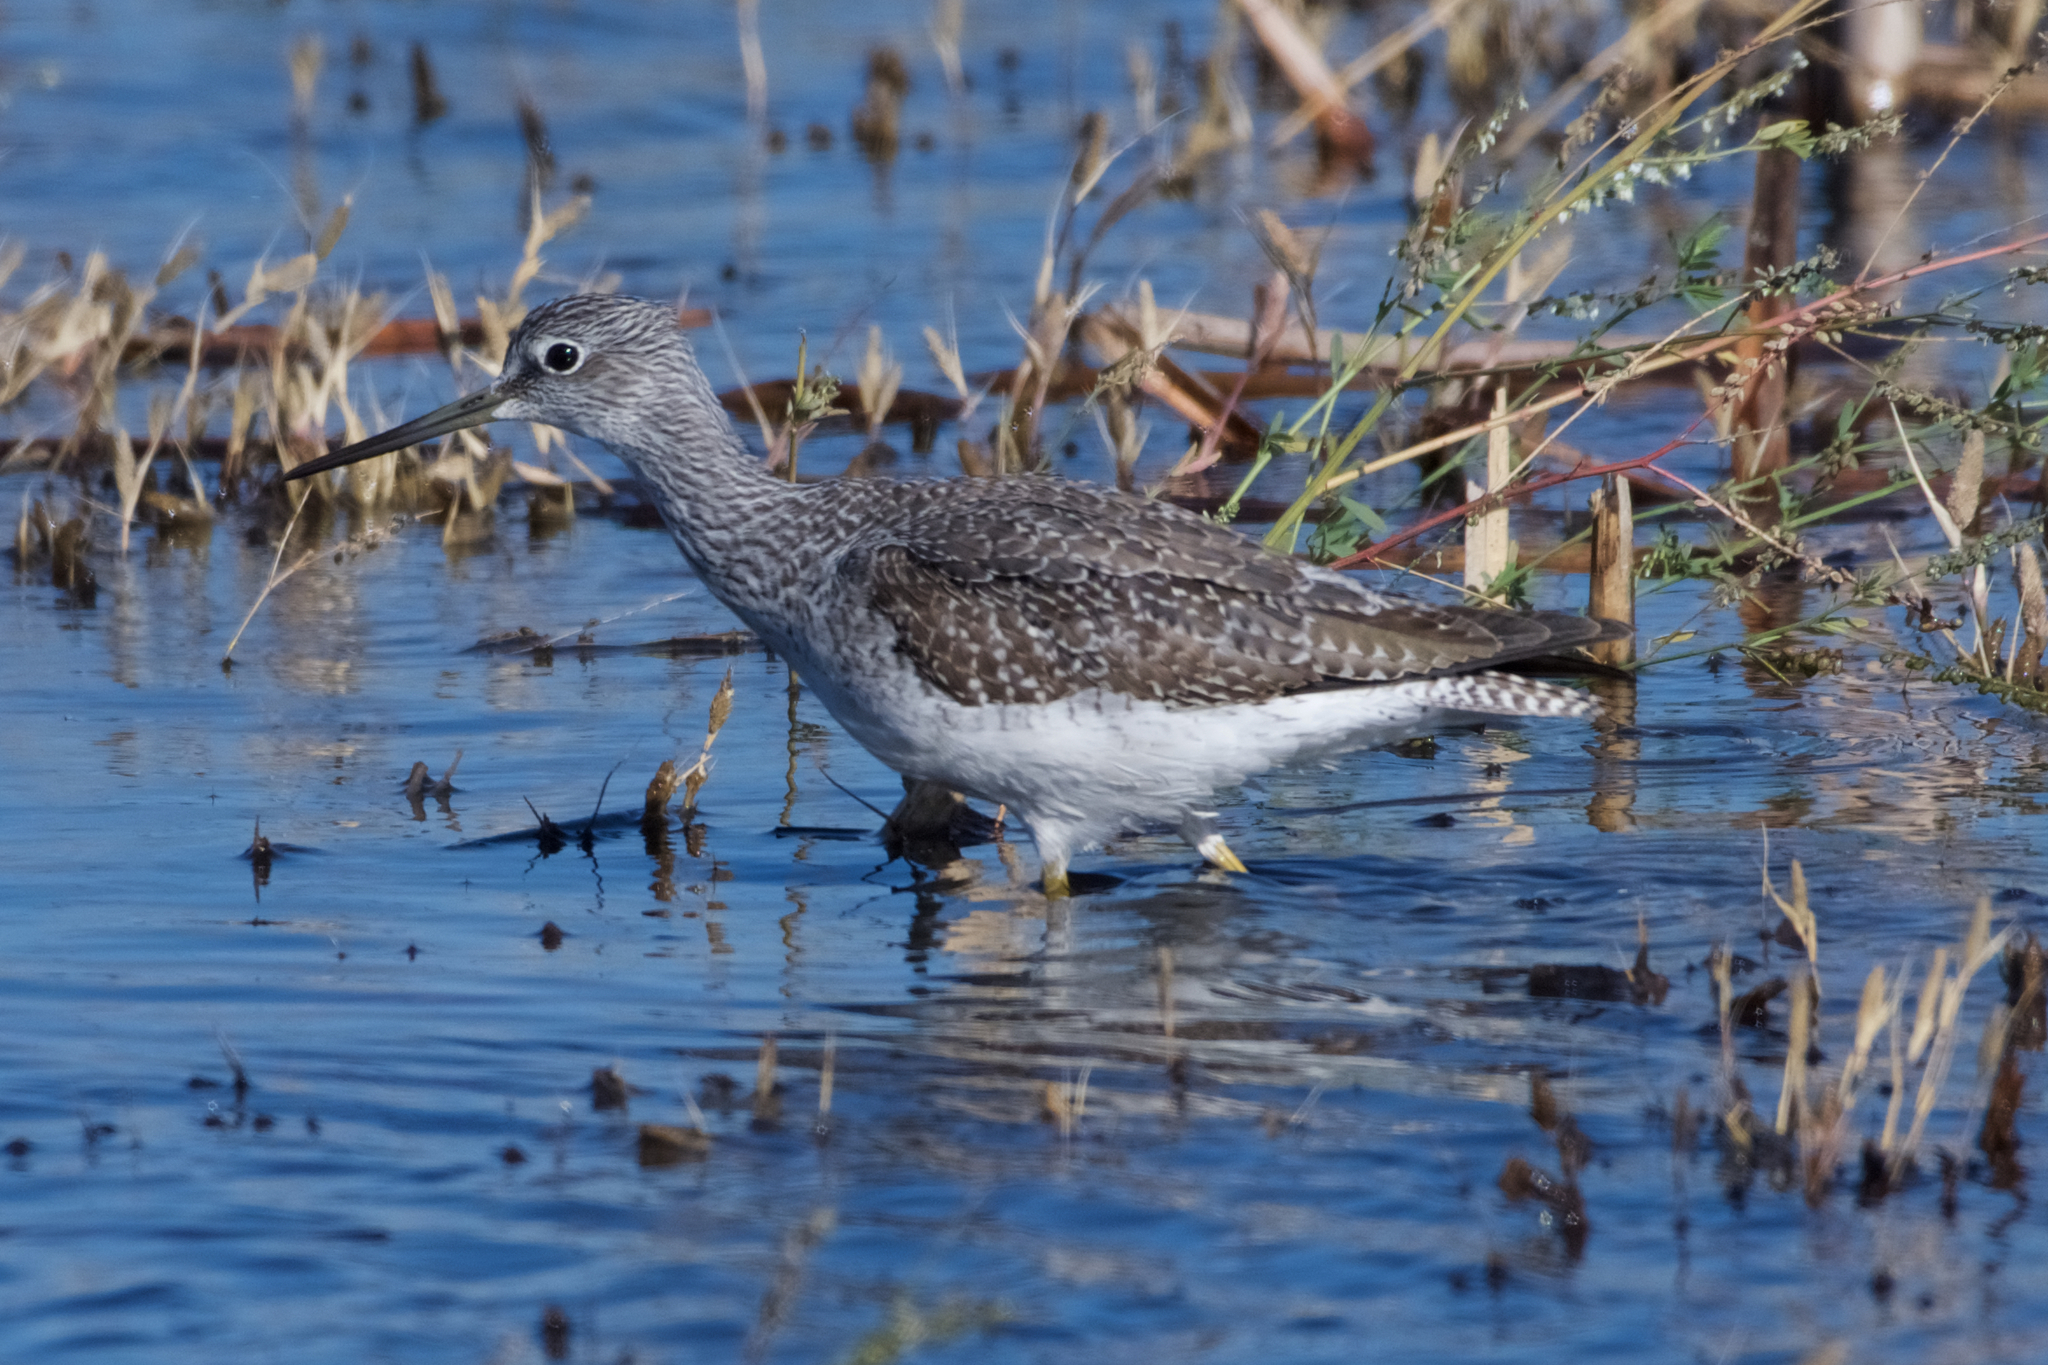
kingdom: Animalia
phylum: Chordata
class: Aves
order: Charadriiformes
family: Scolopacidae
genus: Tringa
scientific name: Tringa melanoleuca
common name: Greater yellowlegs
